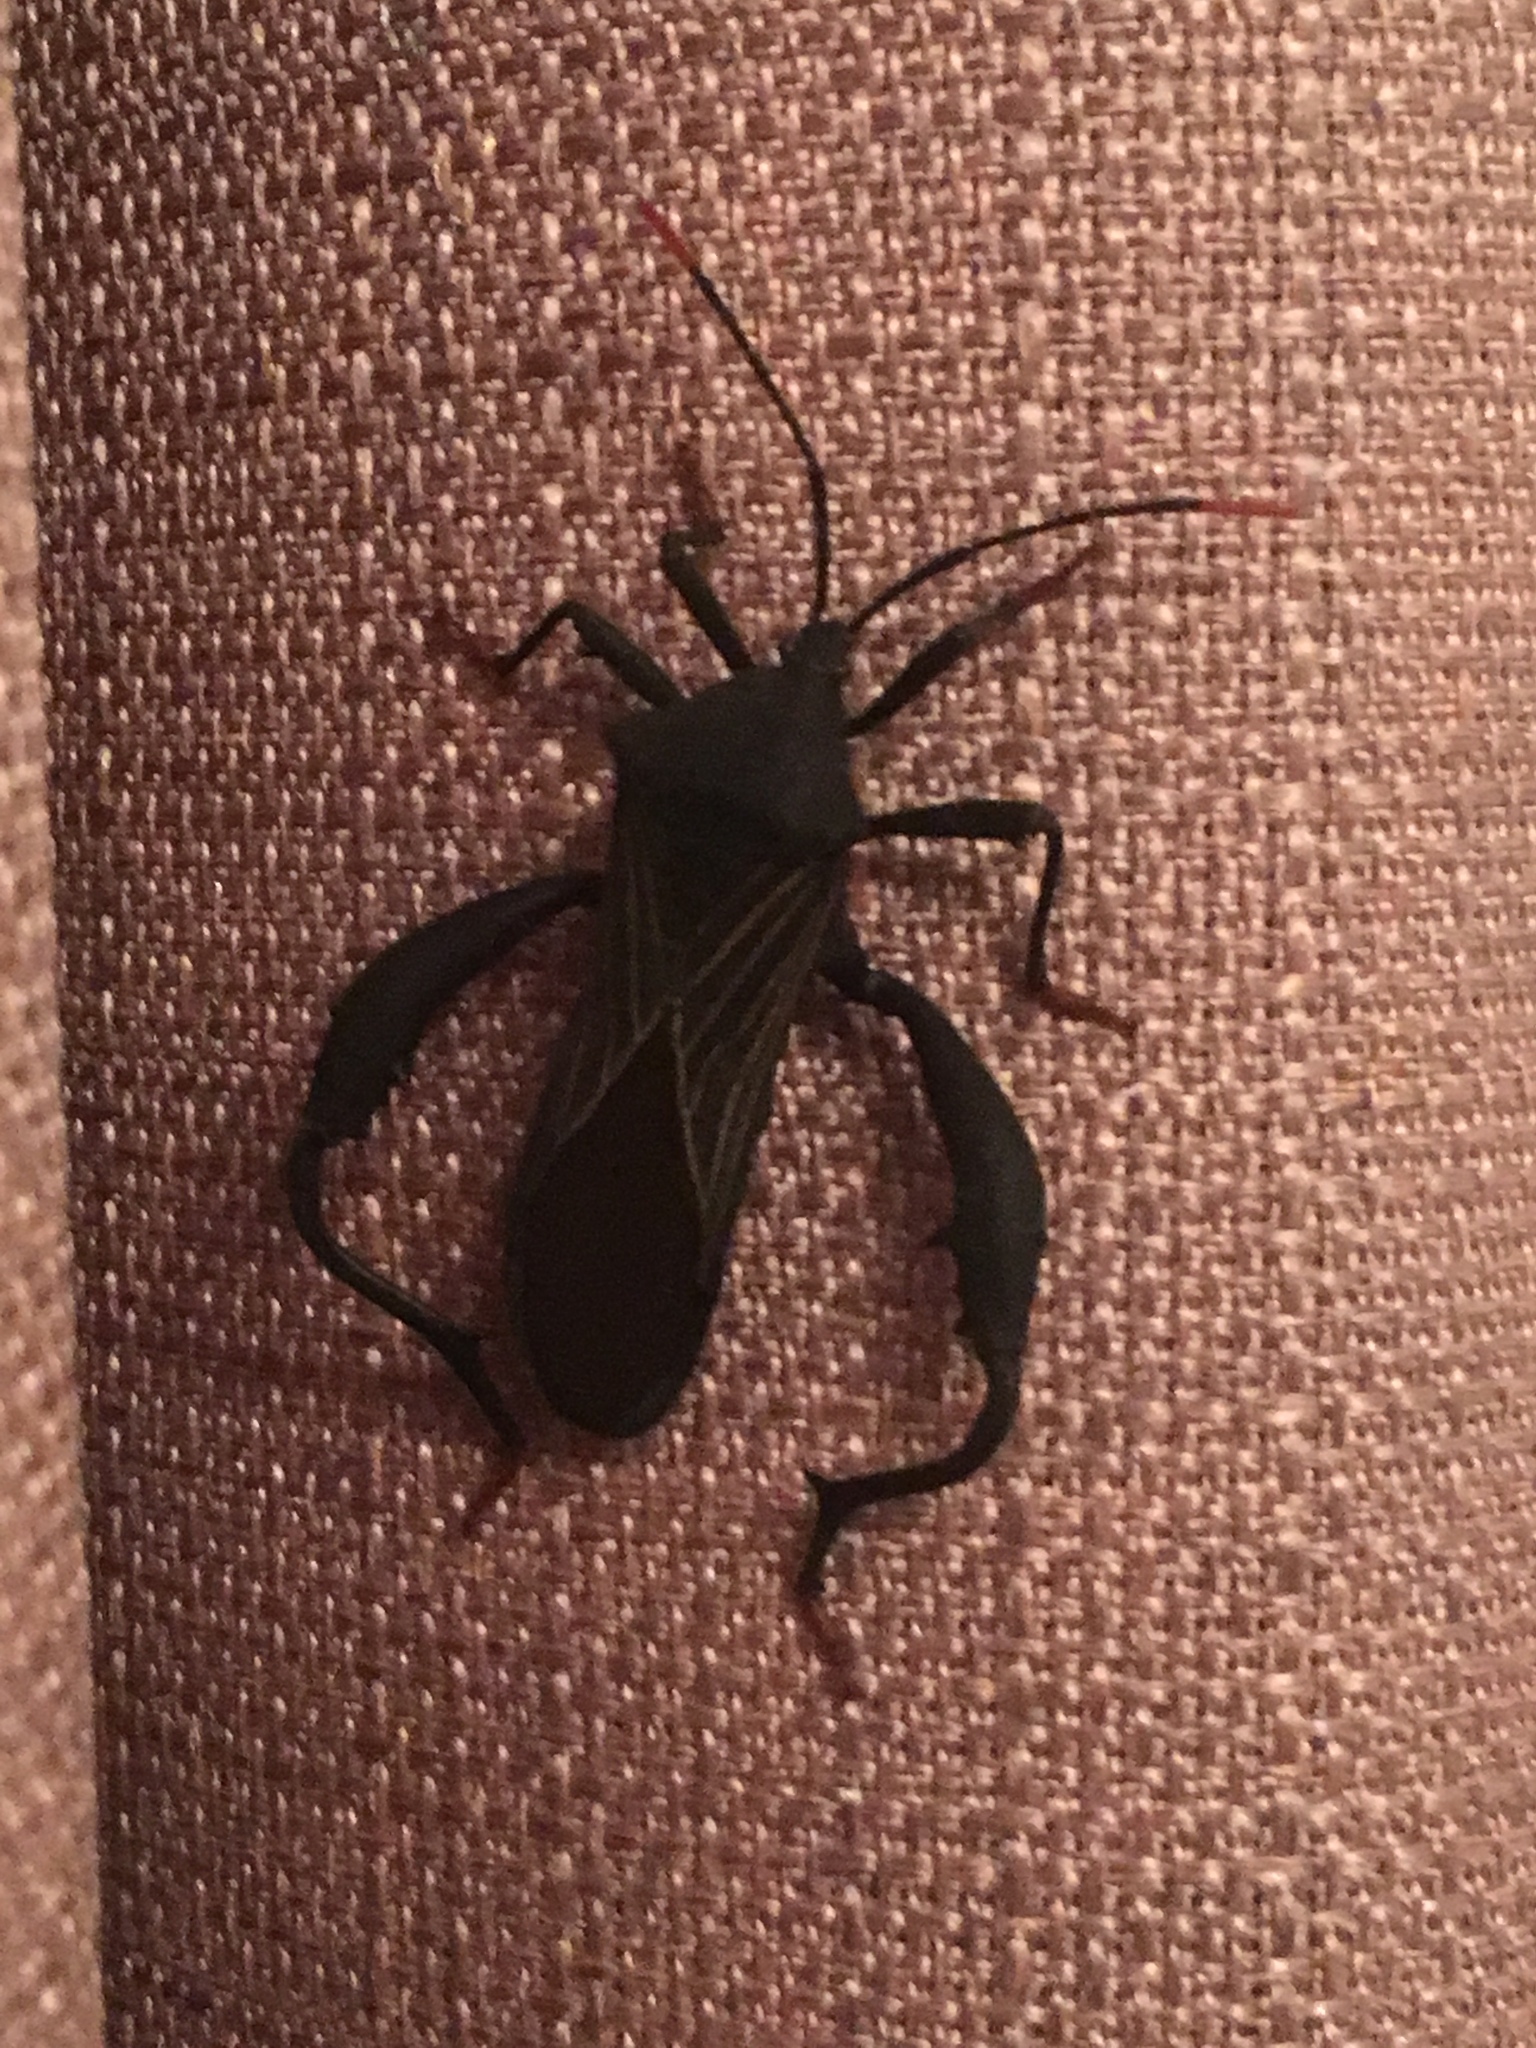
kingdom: Animalia
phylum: Arthropoda
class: Insecta
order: Hemiptera
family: Coreidae
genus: Piezogaster
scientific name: Piezogaster odiosus
